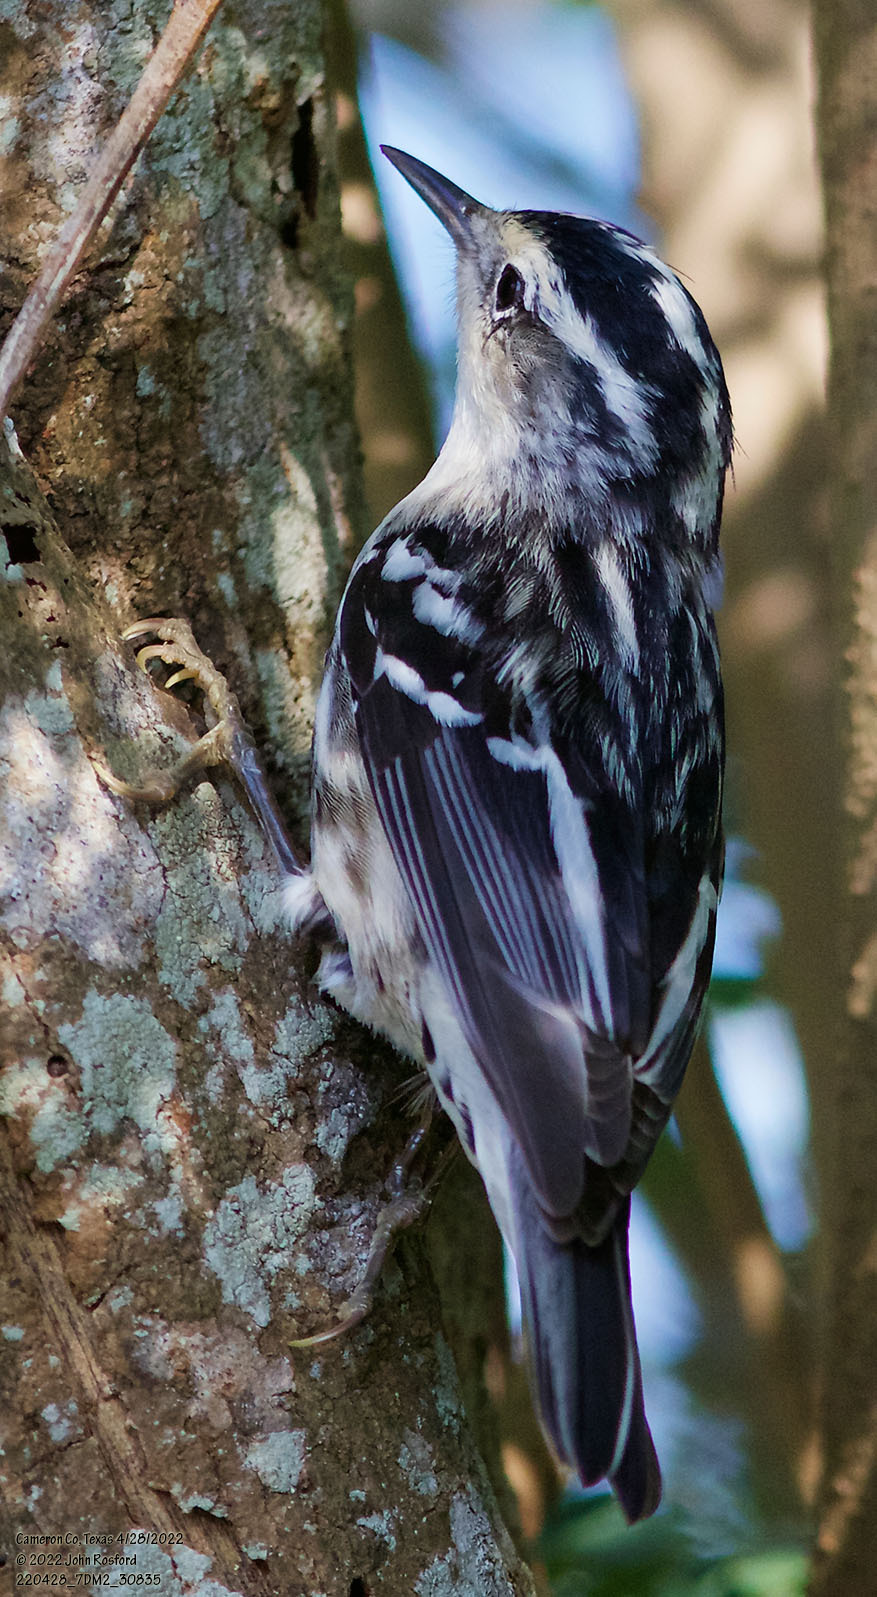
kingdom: Animalia
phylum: Chordata
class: Aves
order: Passeriformes
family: Parulidae
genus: Mniotilta
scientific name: Mniotilta varia
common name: Black-and-white warbler
